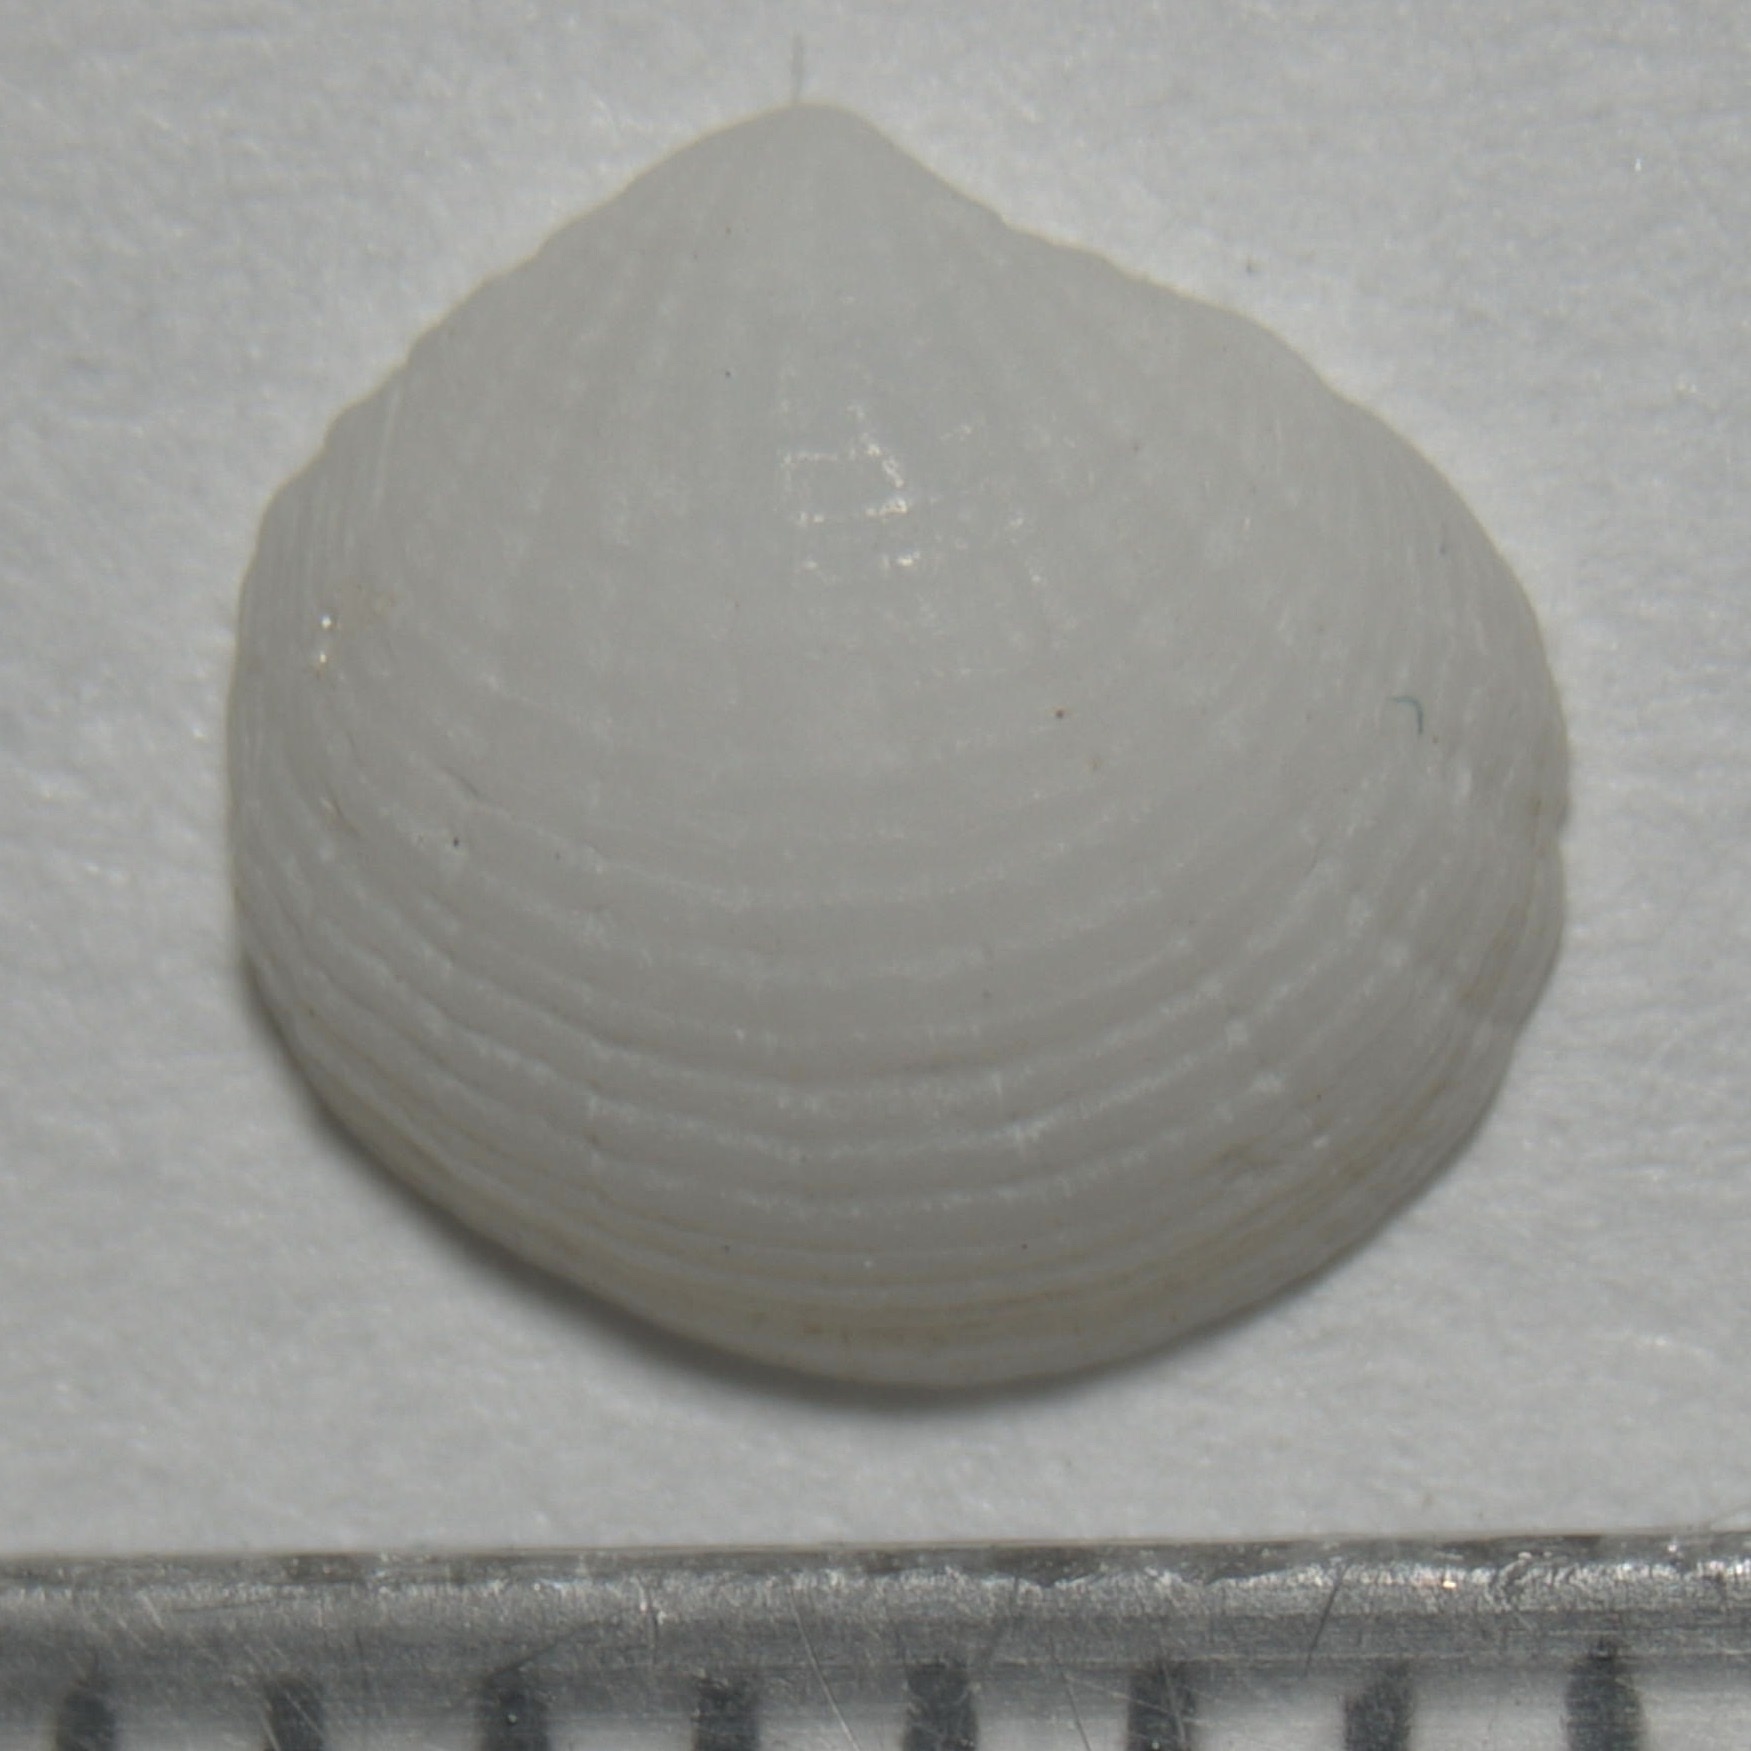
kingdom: Animalia
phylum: Mollusca
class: Bivalvia
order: Lucinida
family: Lucinidae
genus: Radiolucina
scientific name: Radiolucina amianta
